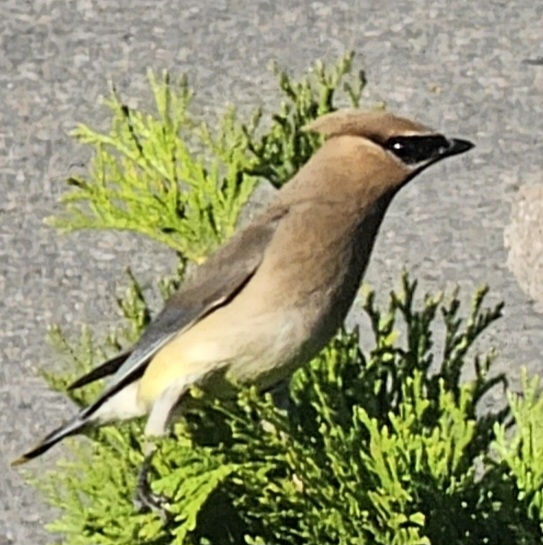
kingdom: Animalia
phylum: Chordata
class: Aves
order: Passeriformes
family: Bombycillidae
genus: Bombycilla
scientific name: Bombycilla cedrorum
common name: Cedar waxwing
